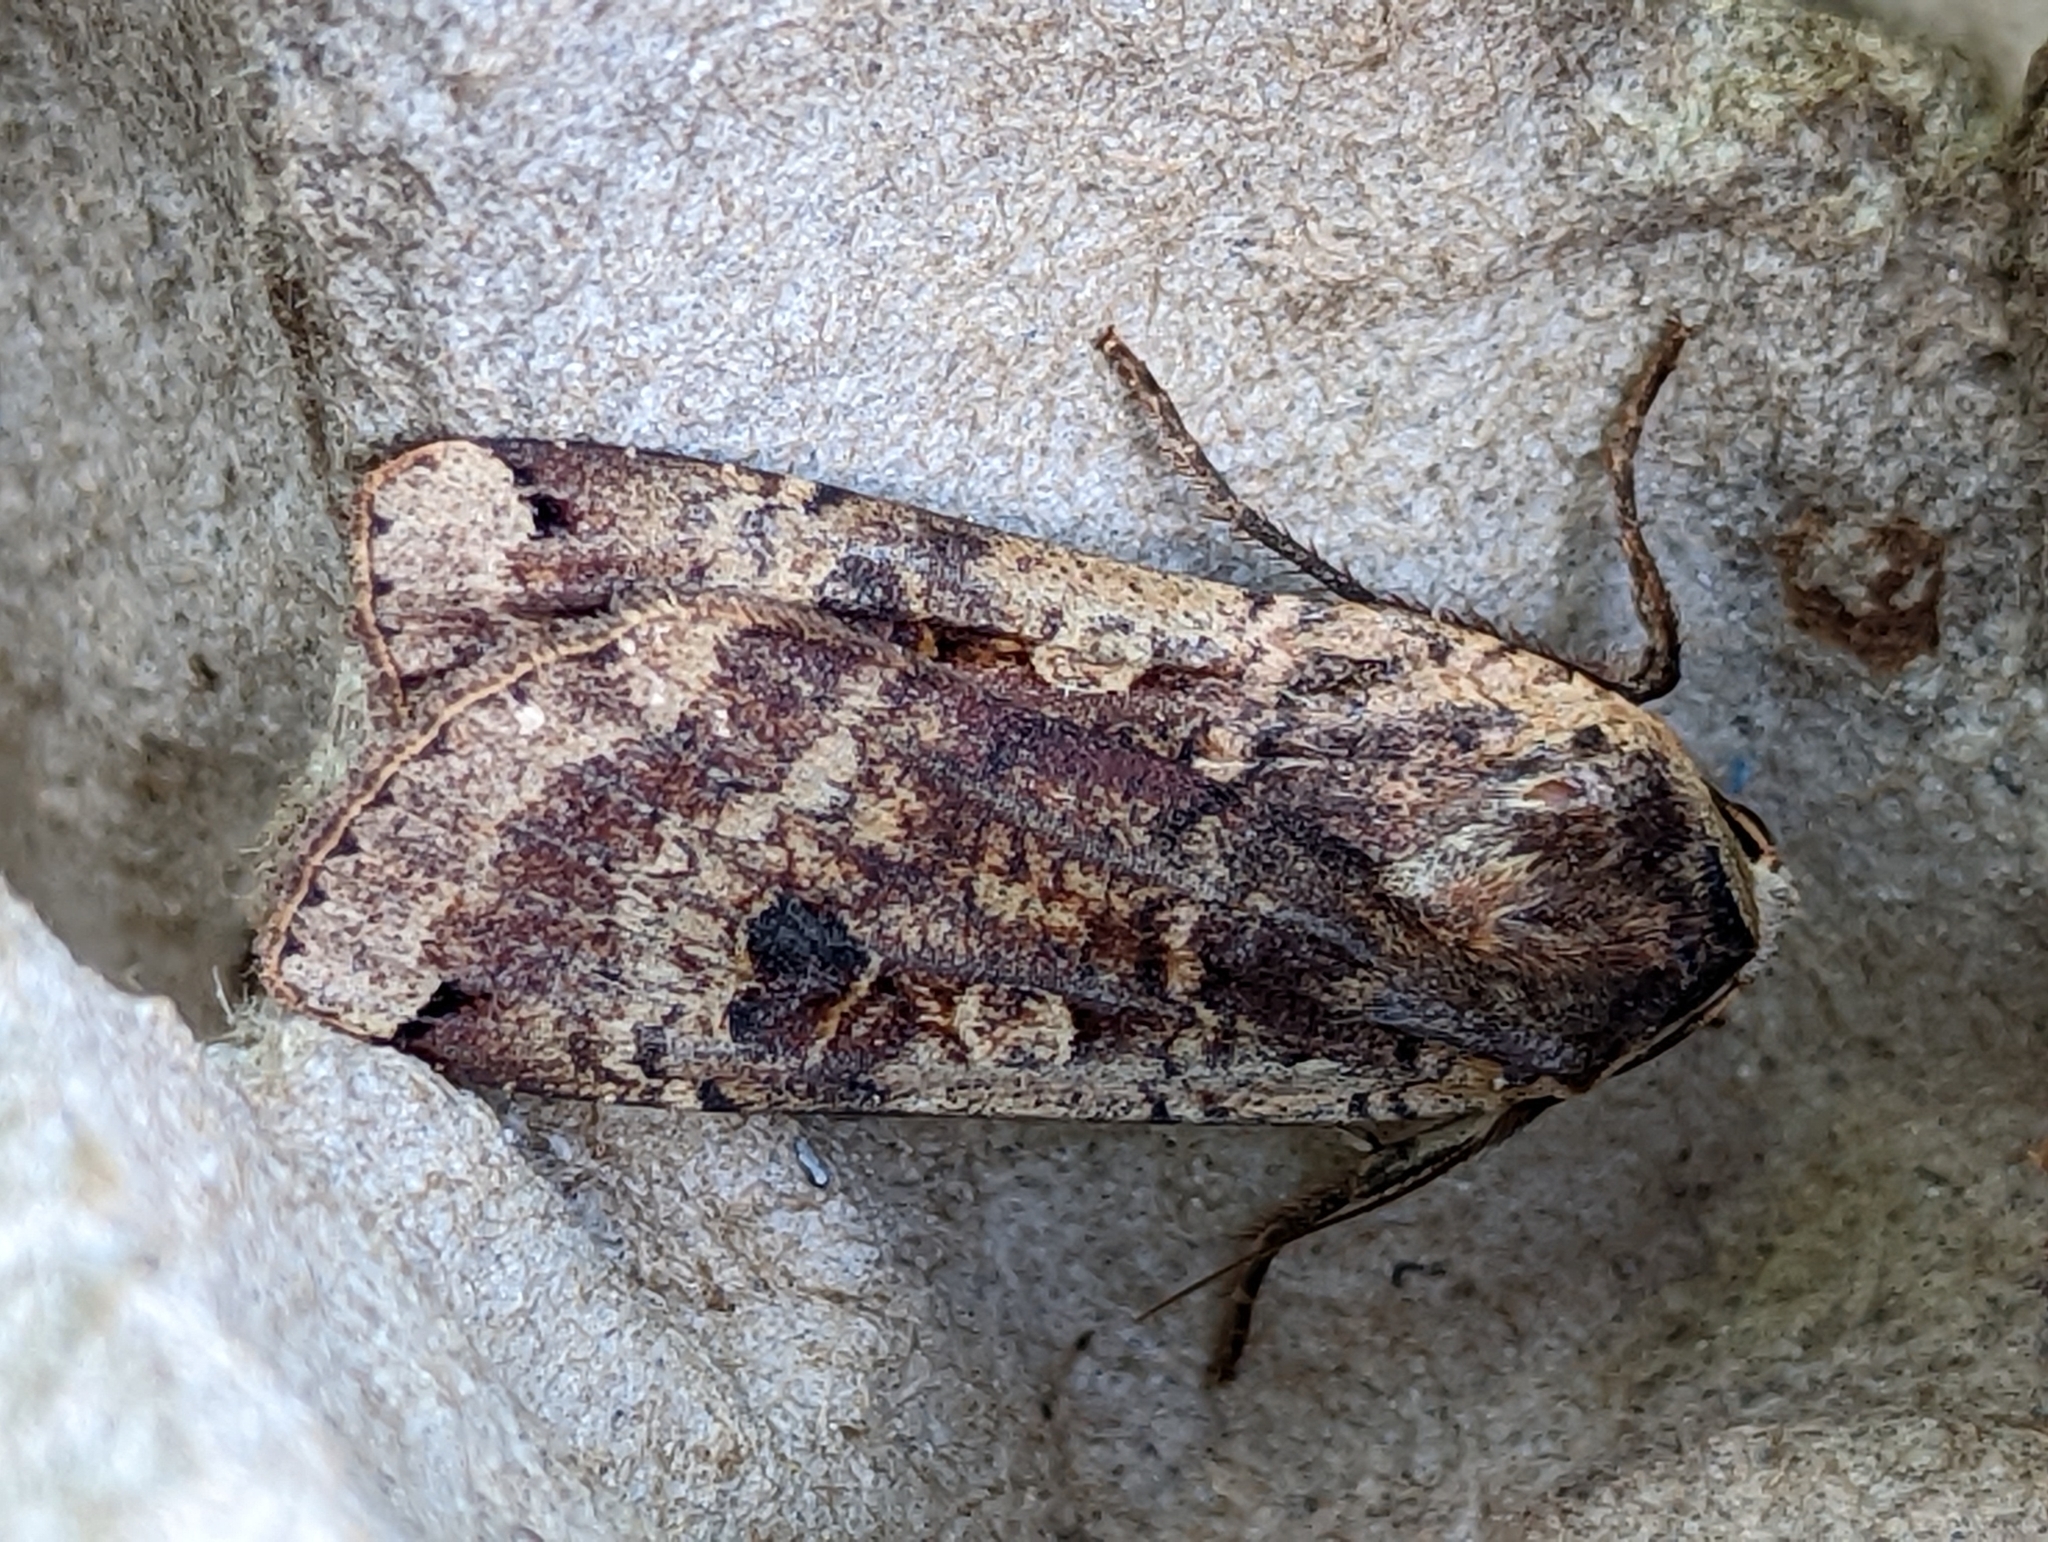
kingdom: Animalia
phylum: Arthropoda
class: Insecta
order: Lepidoptera
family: Noctuidae
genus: Noctua
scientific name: Noctua pronuba
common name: Large yellow underwing
